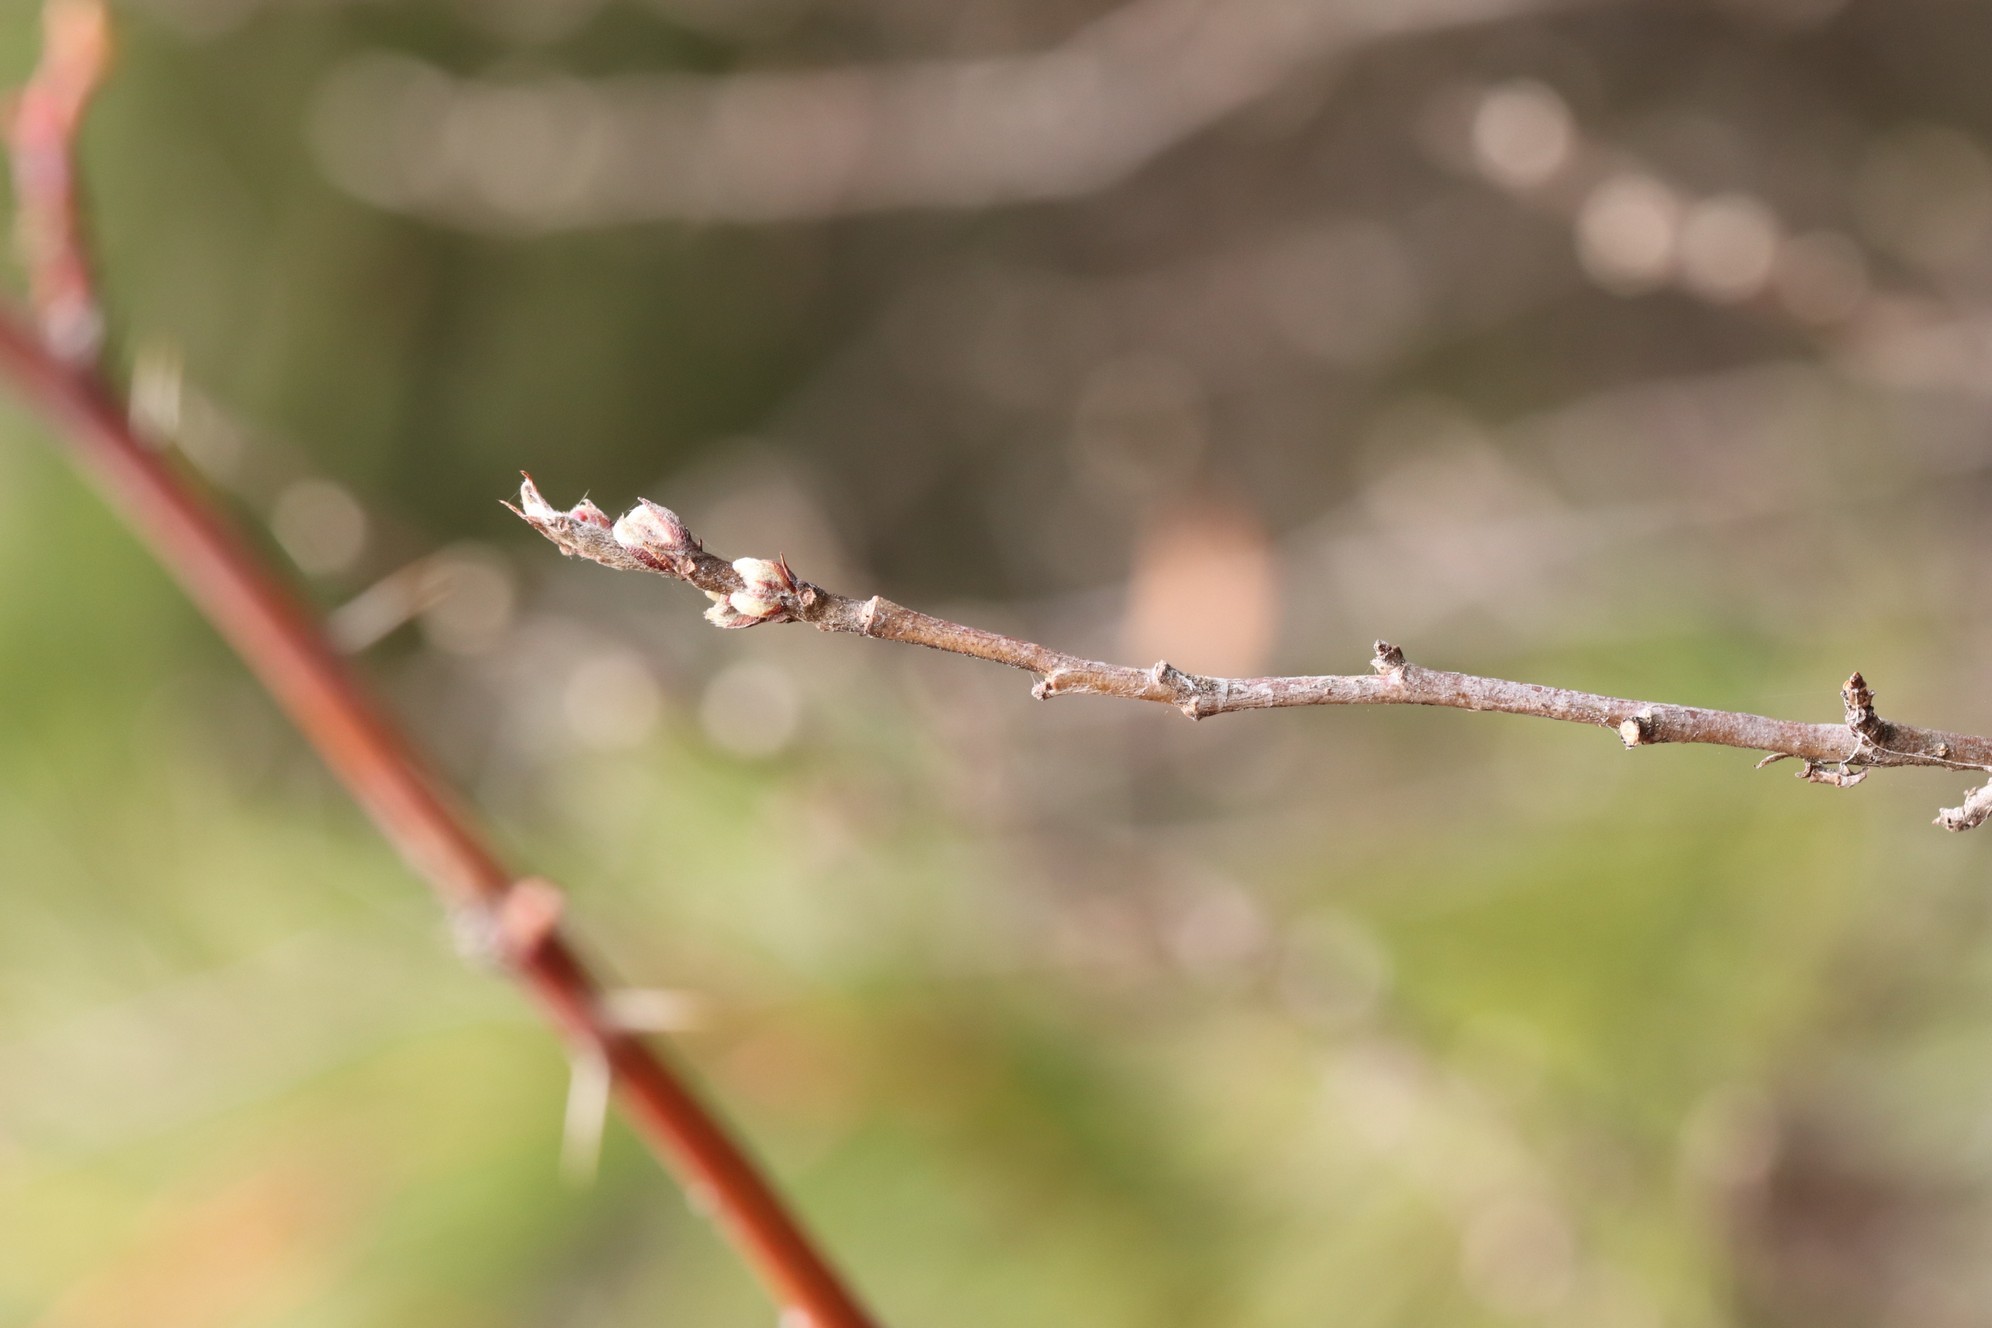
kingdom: Plantae
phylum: Tracheophyta
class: Magnoliopsida
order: Rosales
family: Rosaceae
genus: Cotoneaster
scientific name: Cotoneaster melanocarpus
